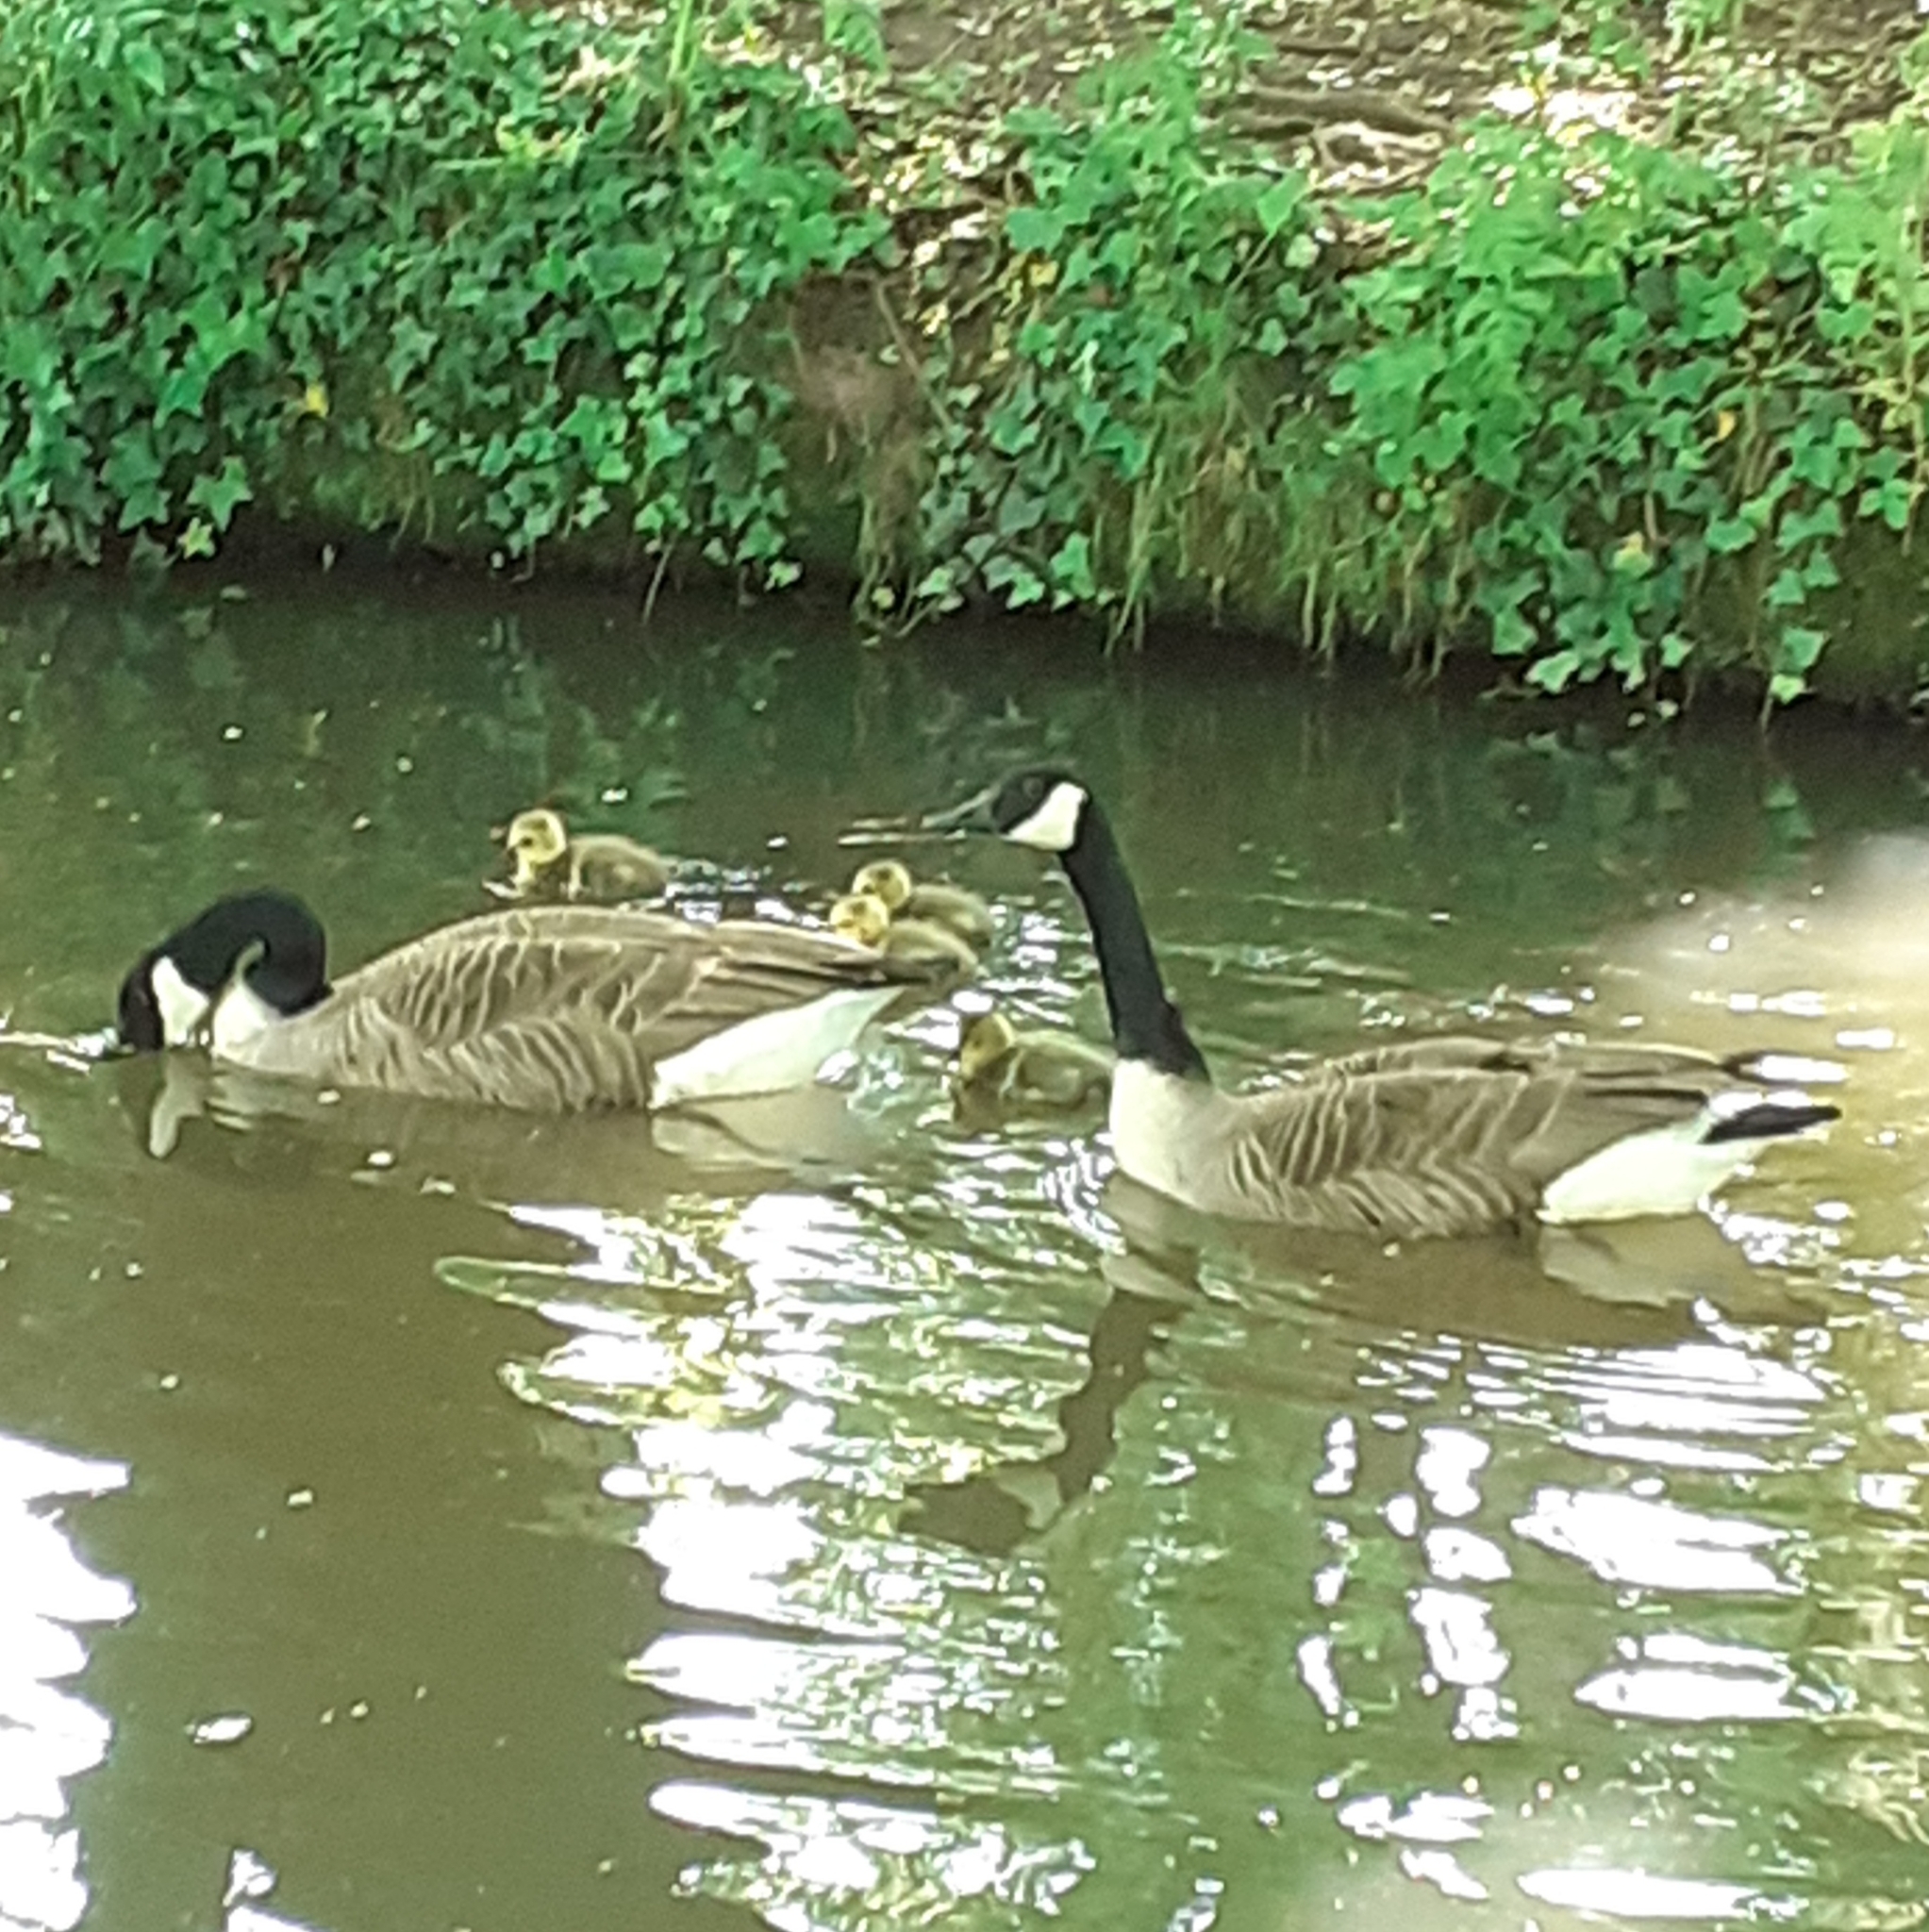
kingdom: Animalia
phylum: Chordata
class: Aves
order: Anseriformes
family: Anatidae
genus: Branta
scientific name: Branta canadensis
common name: Canada goose
